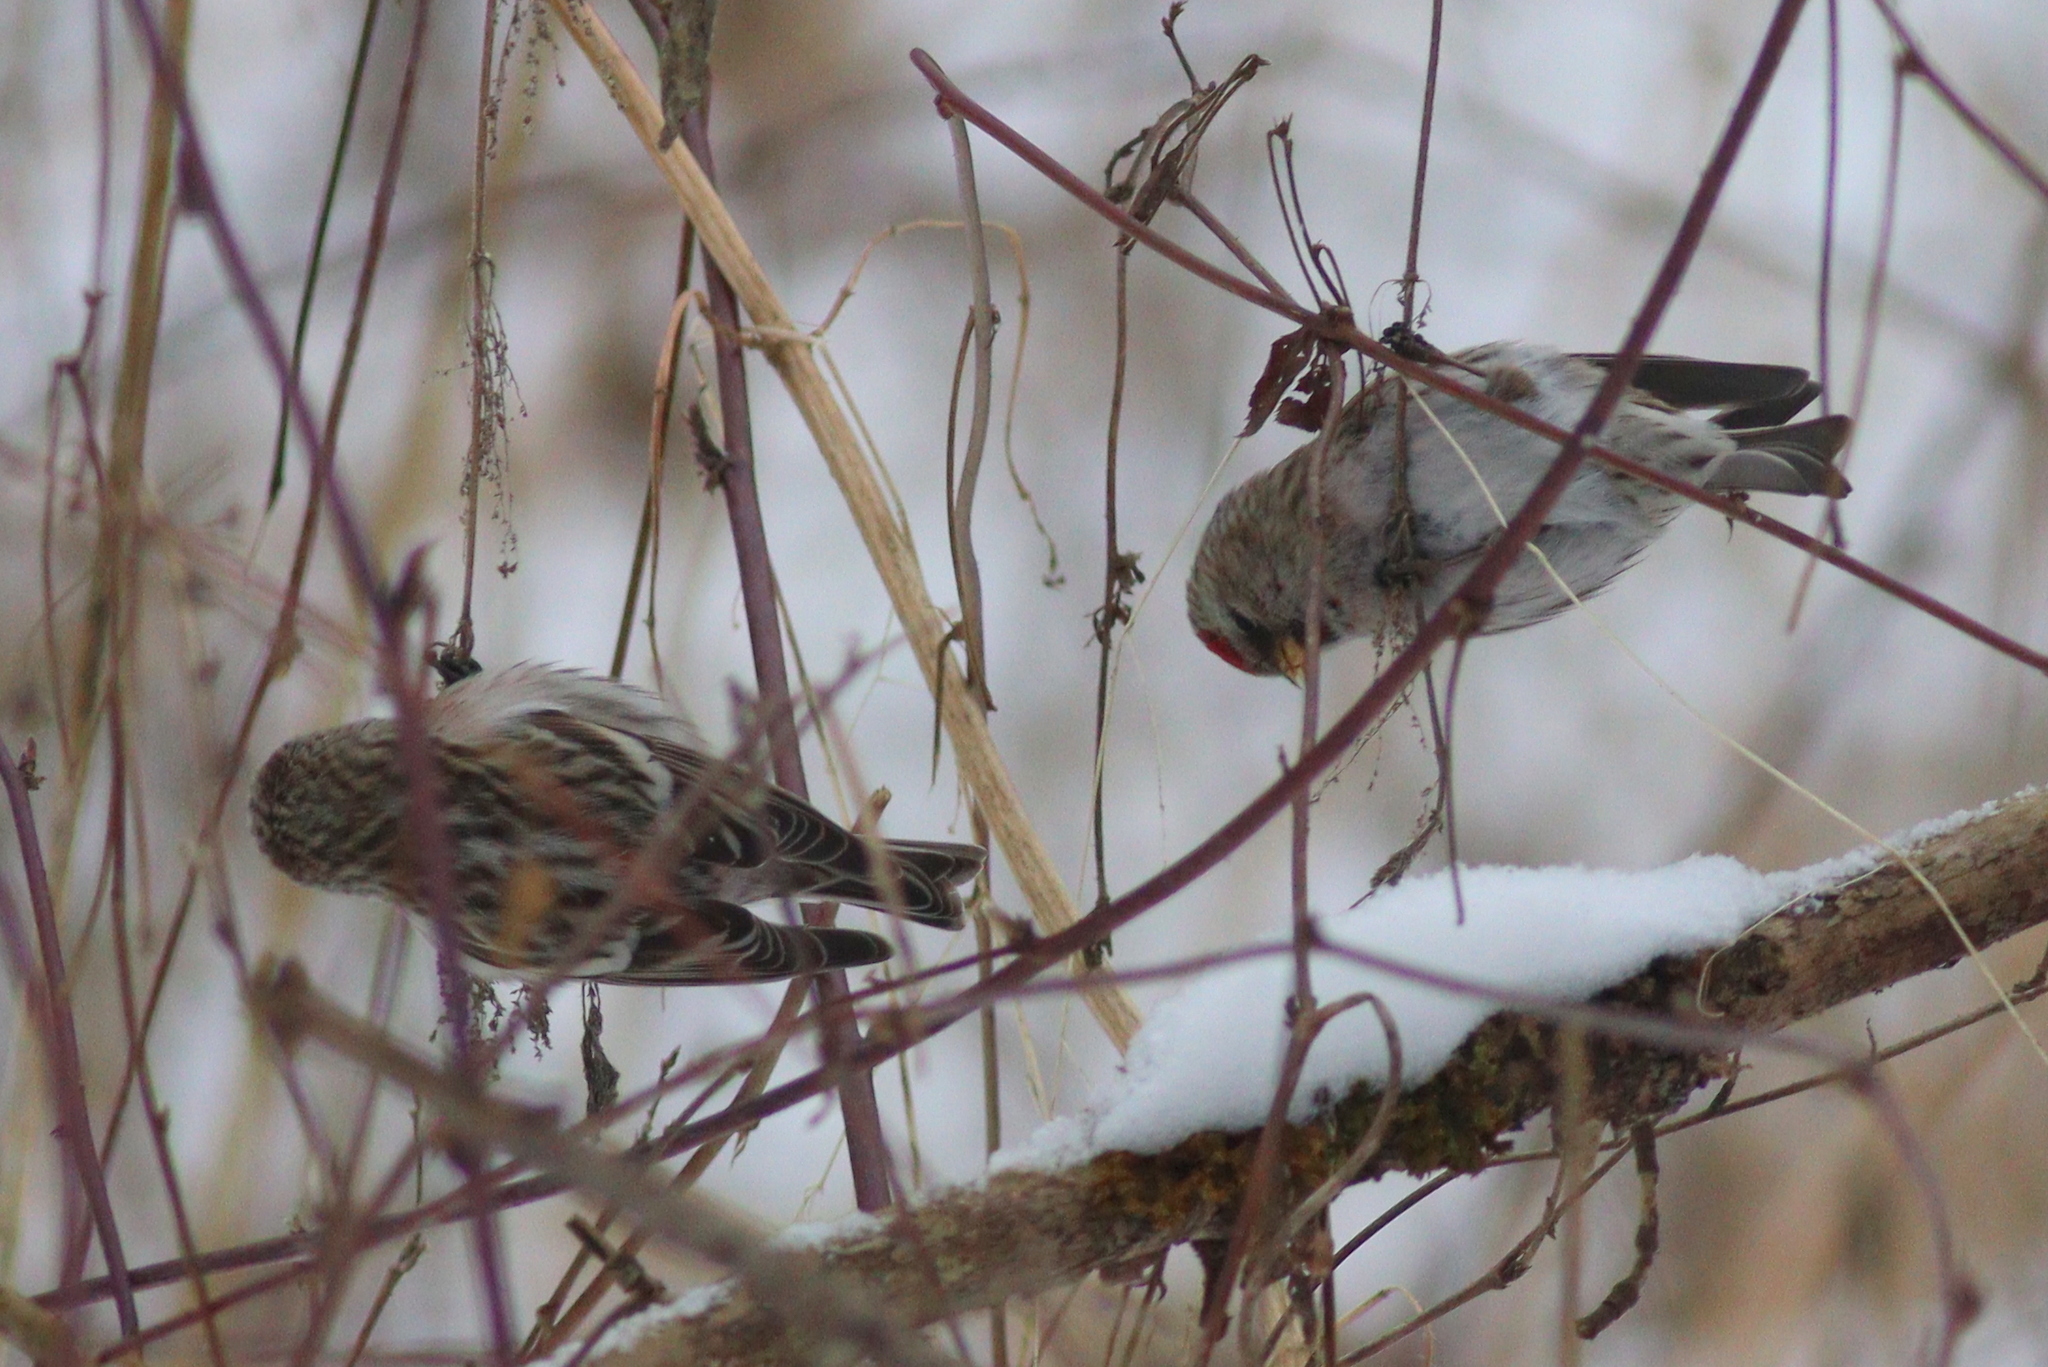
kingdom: Animalia
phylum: Chordata
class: Aves
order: Passeriformes
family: Fringillidae
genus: Acanthis
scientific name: Acanthis flammea
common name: Common redpoll
